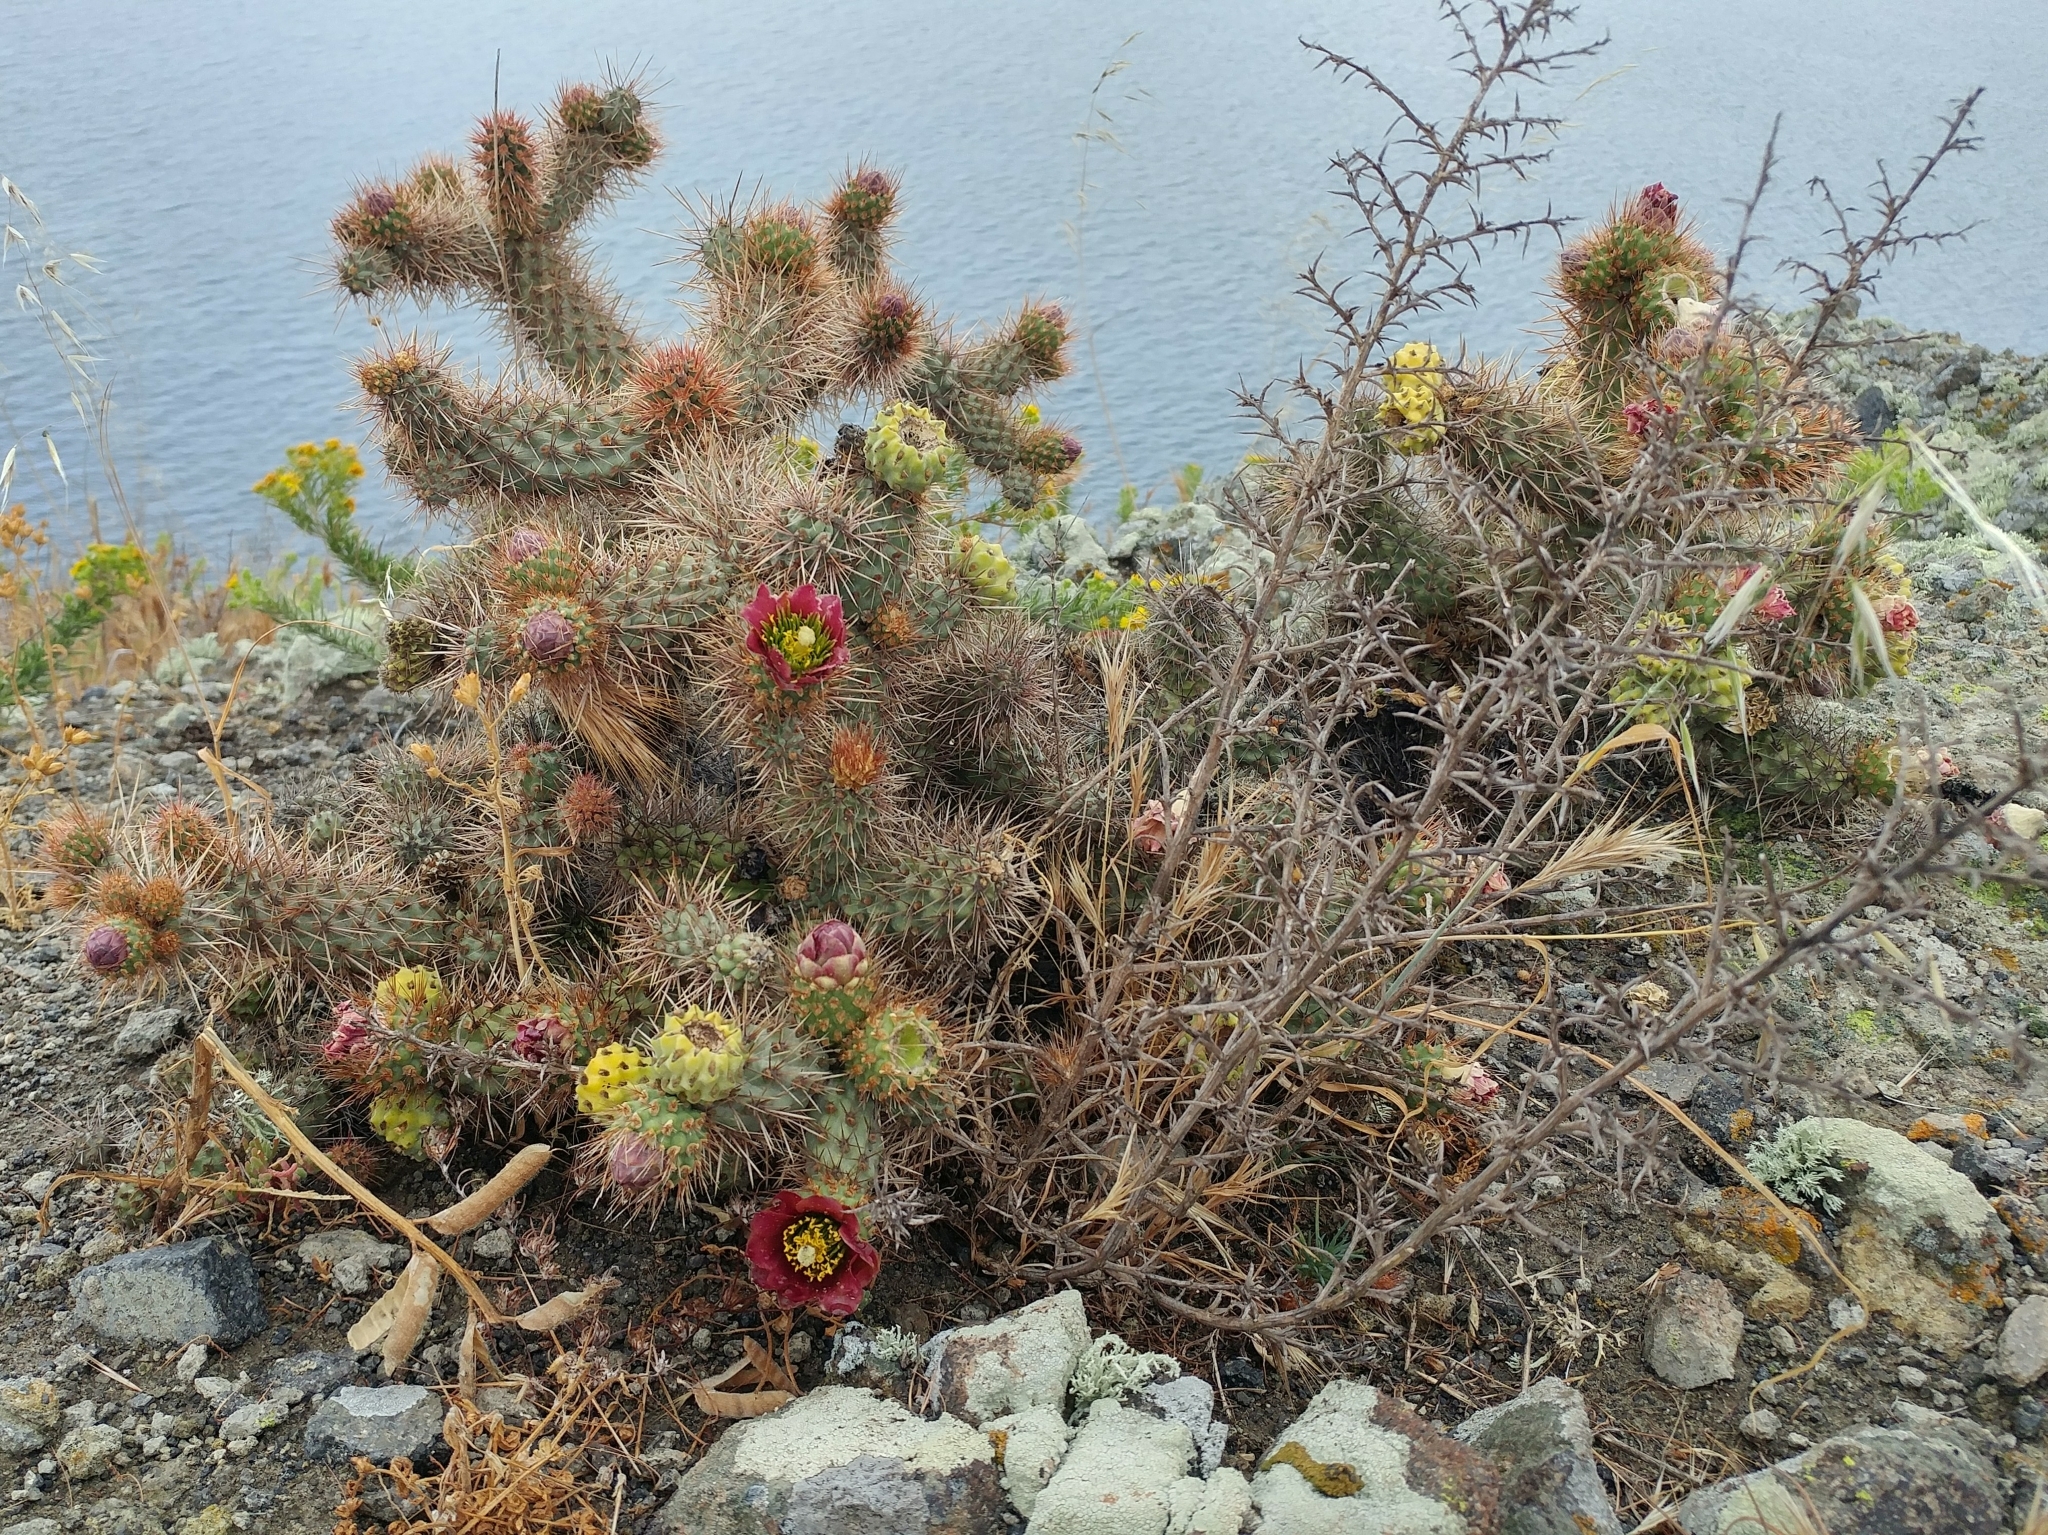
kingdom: Plantae
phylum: Tracheophyta
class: Magnoliopsida
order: Caryophyllales
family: Cactaceae
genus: Cylindropuntia
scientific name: Cylindropuntia prolifera
